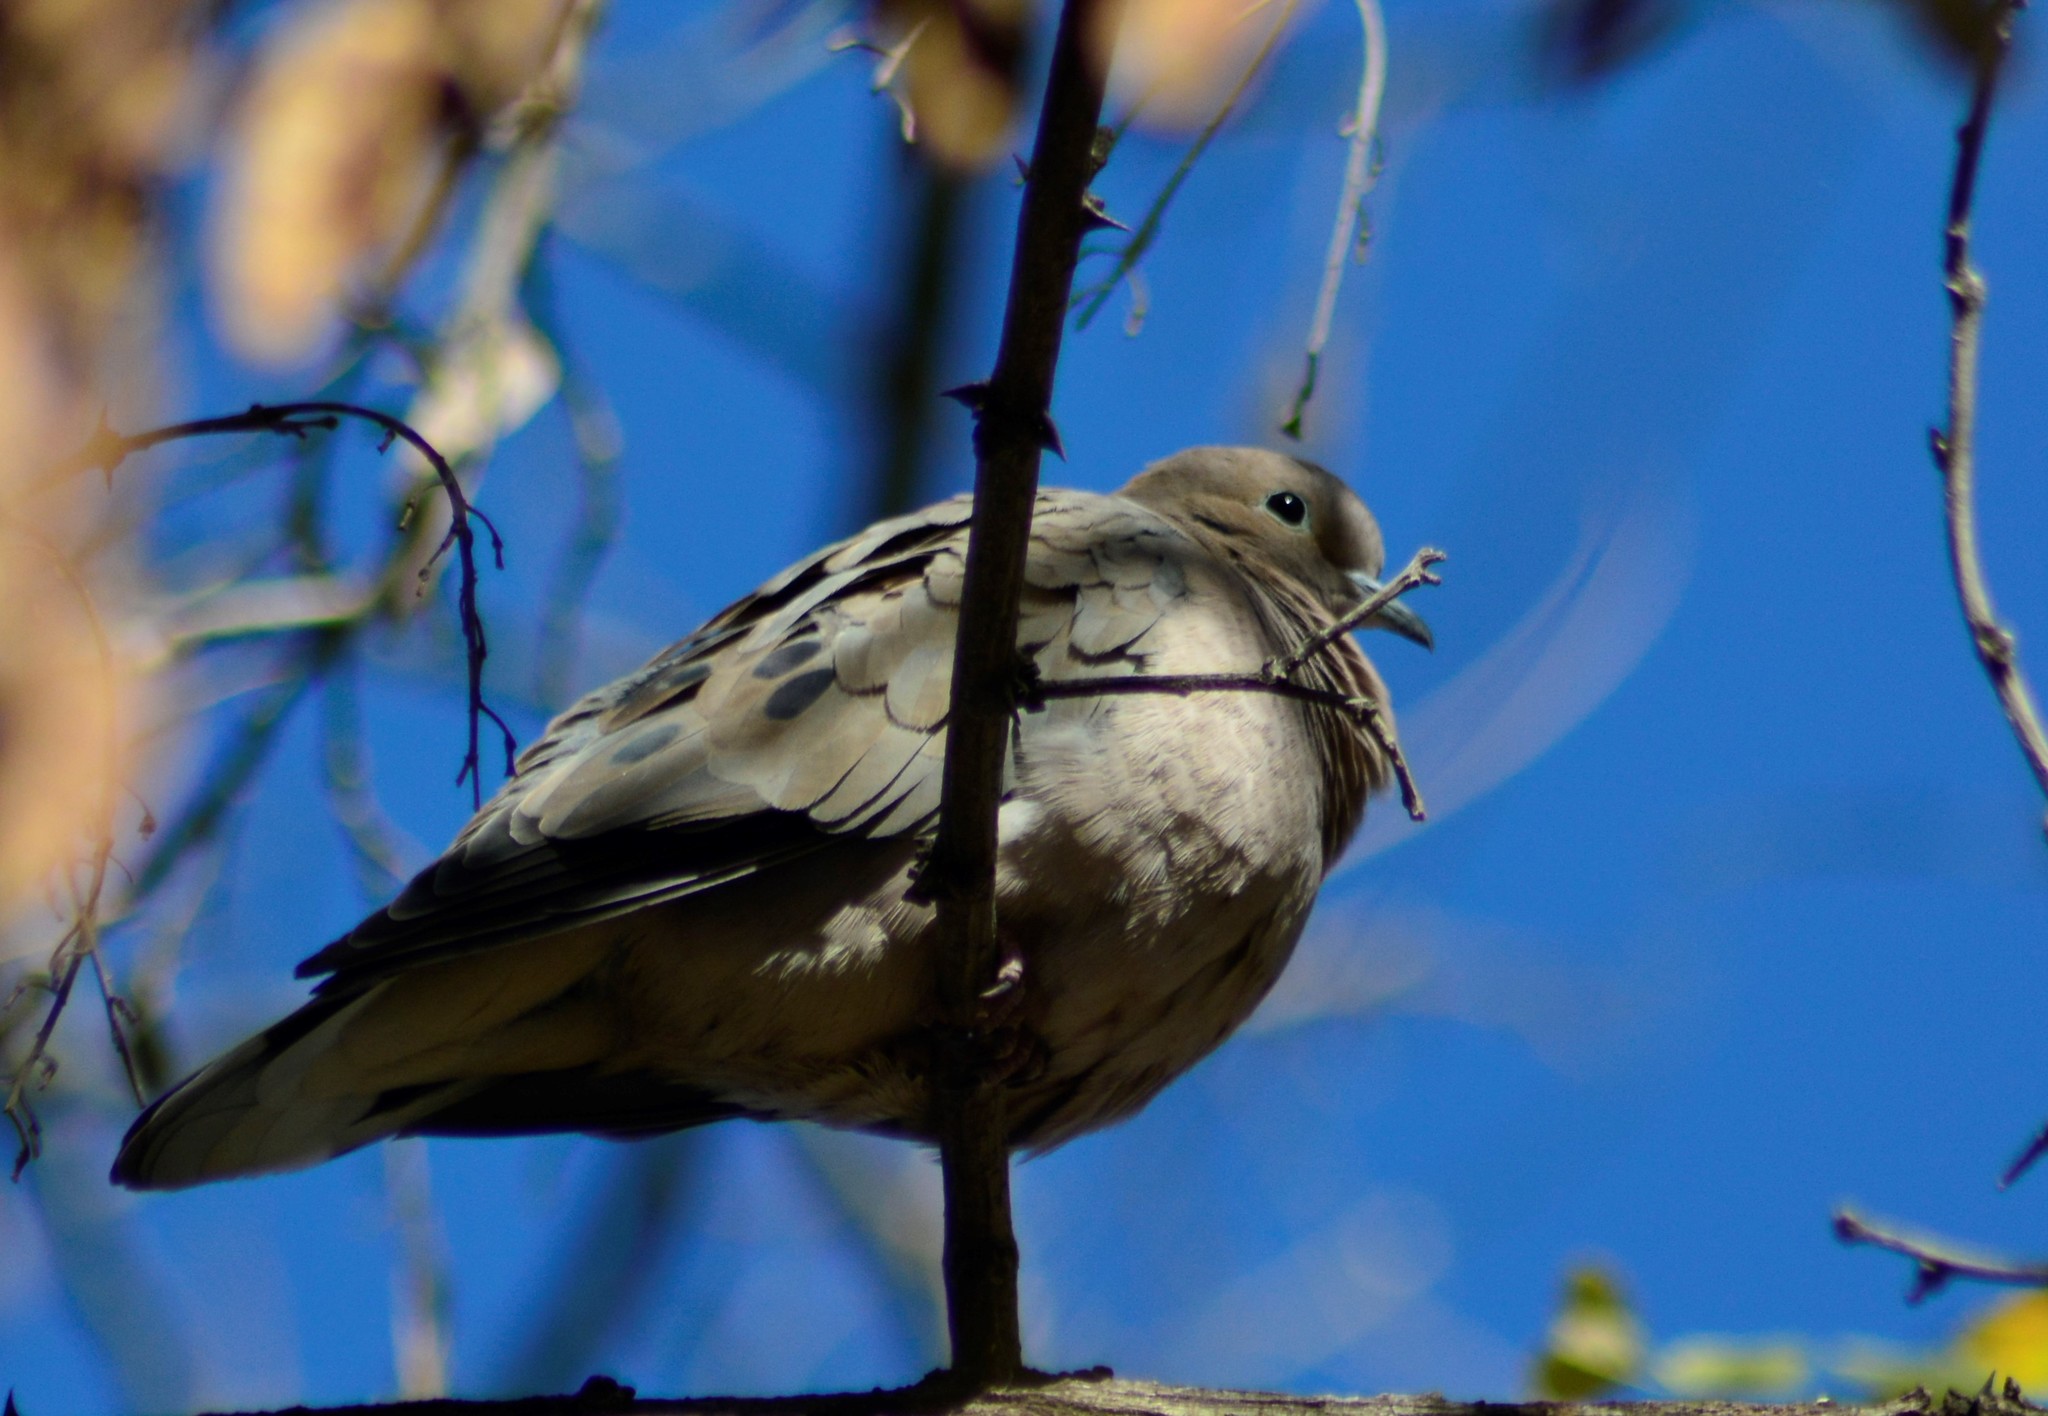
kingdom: Animalia
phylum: Chordata
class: Aves
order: Columbiformes
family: Columbidae
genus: Zenaida
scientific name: Zenaida auriculata
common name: Eared dove
